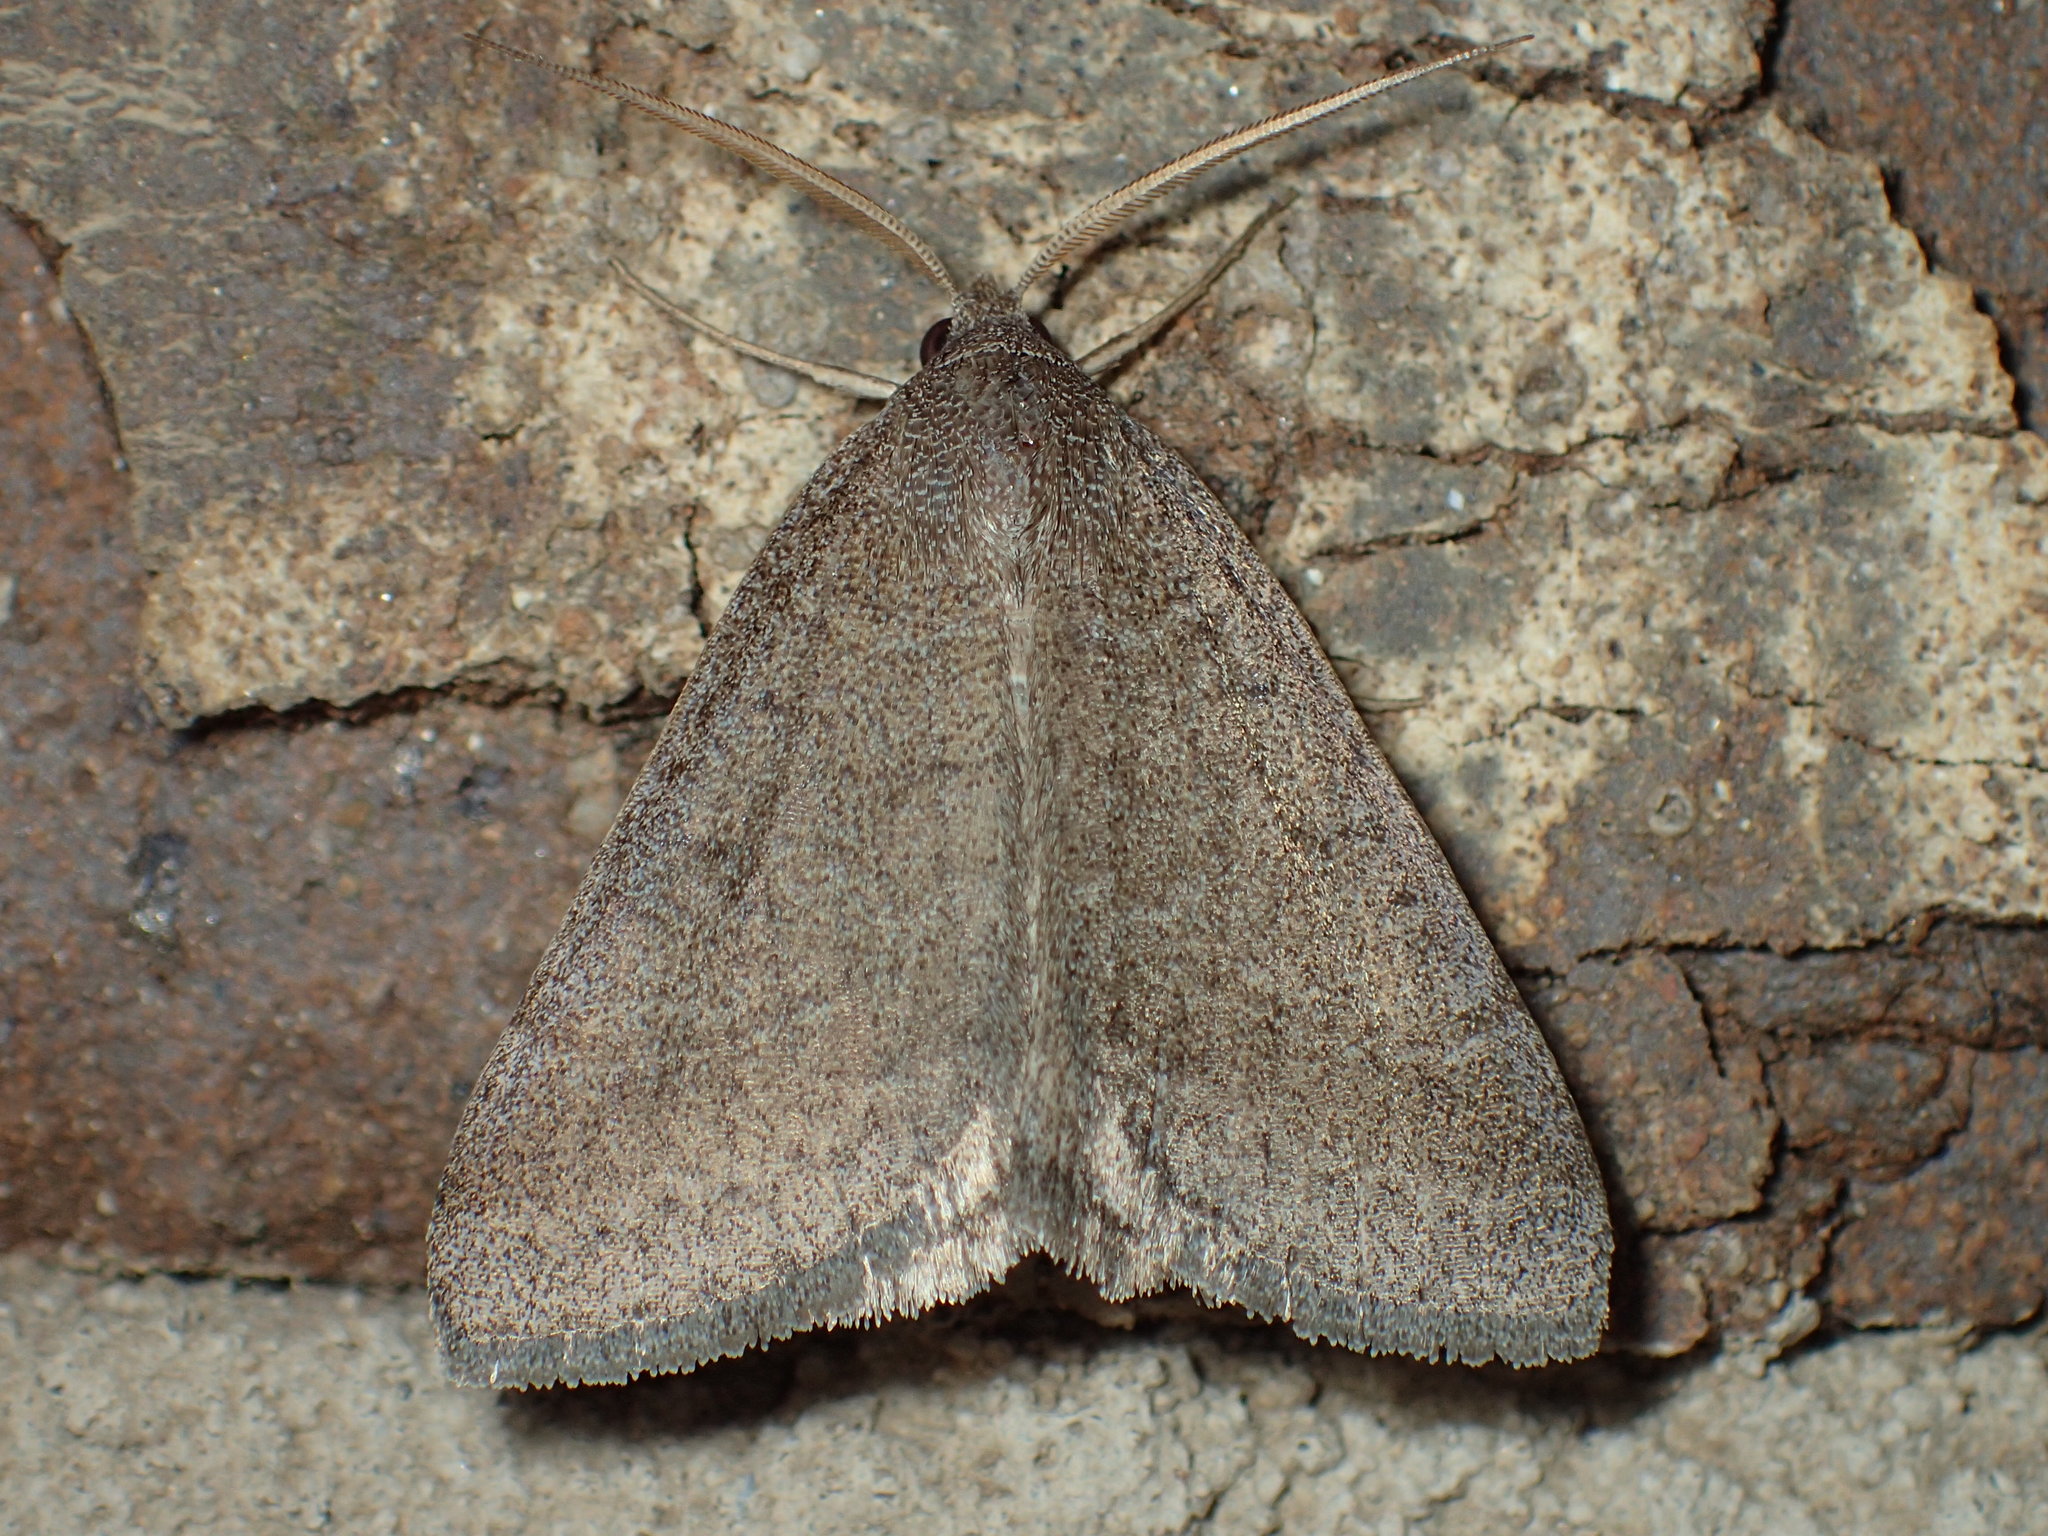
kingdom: Animalia
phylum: Arthropoda
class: Insecta
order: Lepidoptera
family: Erebidae
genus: Caenurgia
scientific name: Caenurgia chloropha
